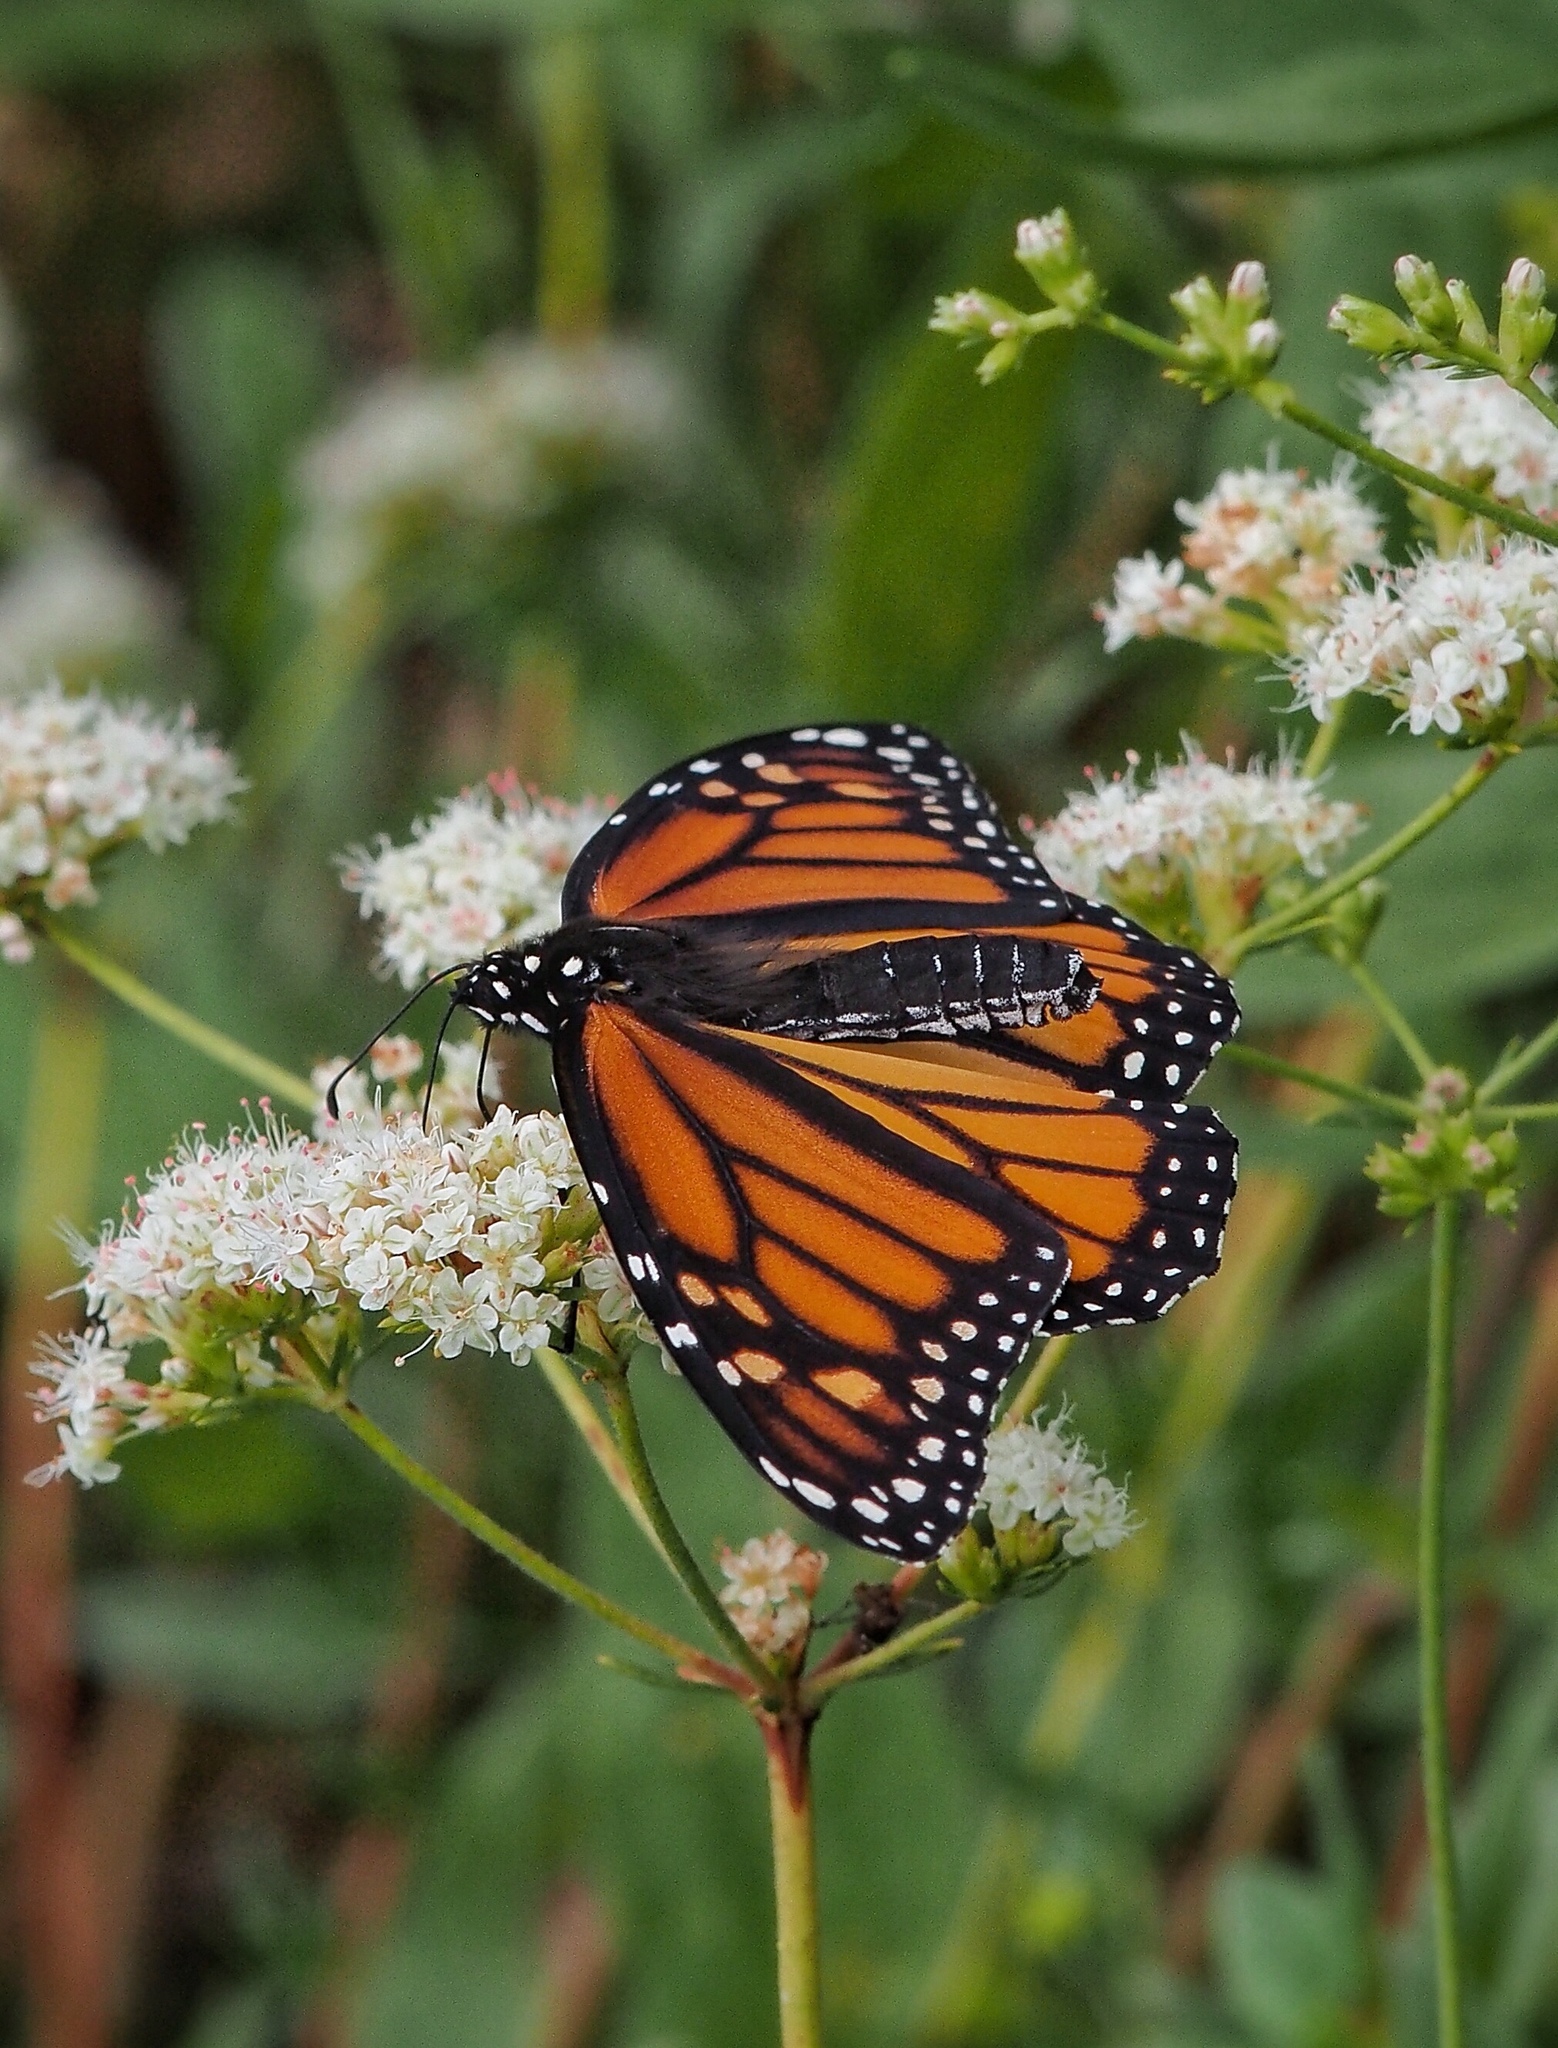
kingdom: Animalia
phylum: Arthropoda
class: Insecta
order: Lepidoptera
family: Nymphalidae
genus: Danaus
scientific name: Danaus plexippus
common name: Monarch
